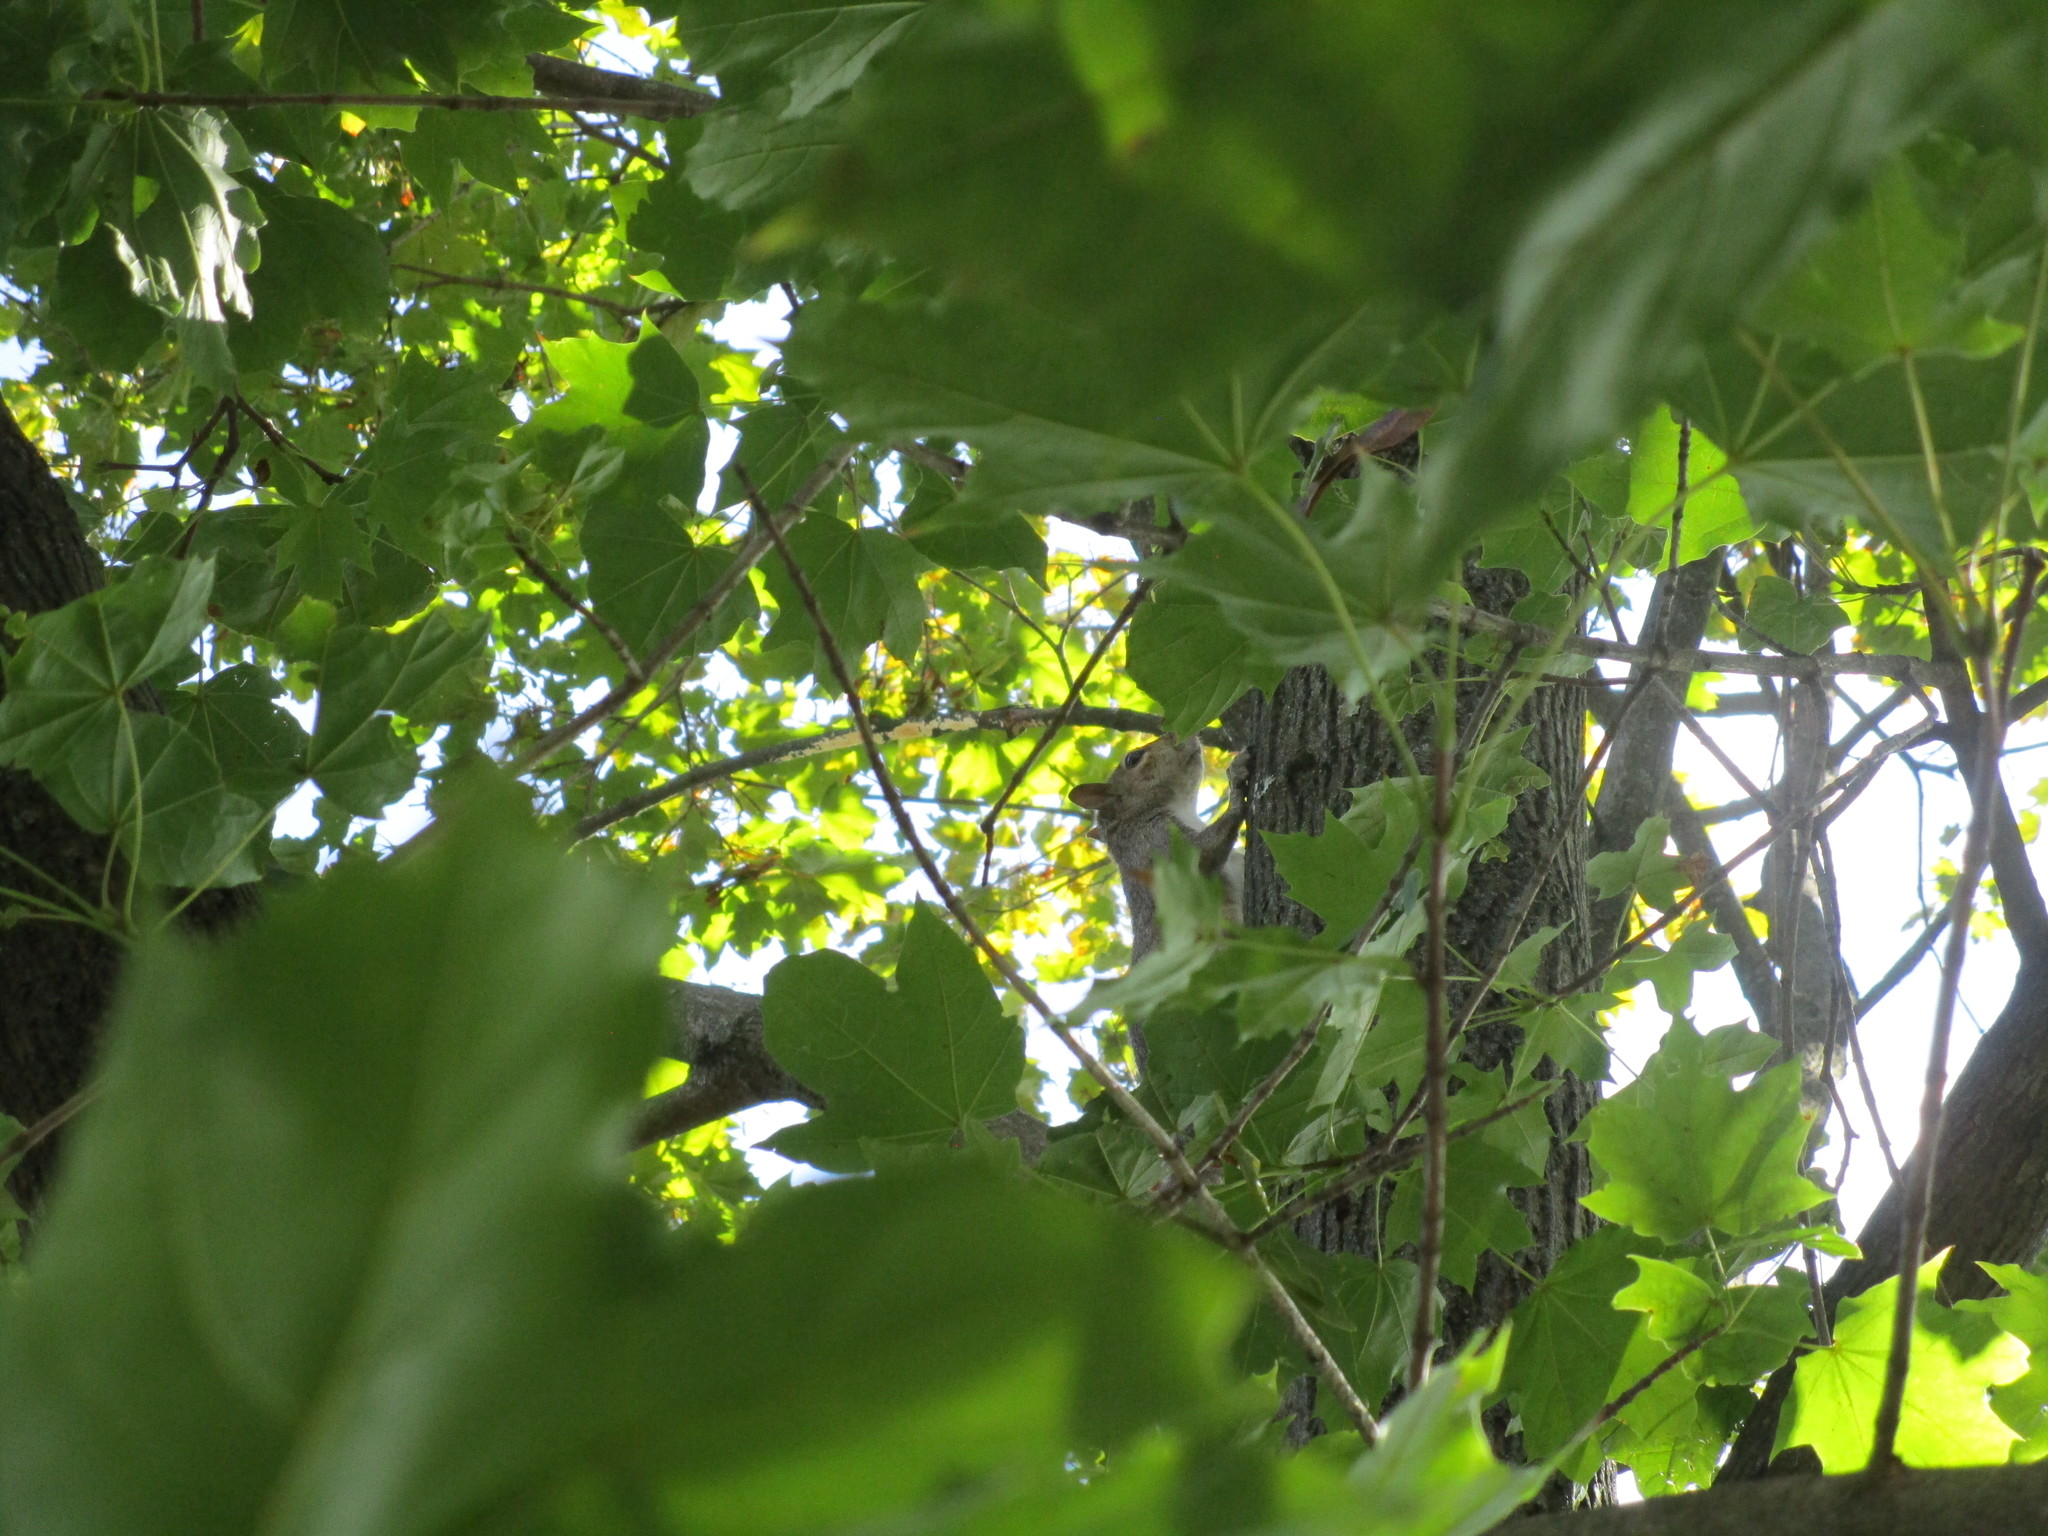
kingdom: Animalia
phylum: Chordata
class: Mammalia
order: Rodentia
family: Sciuridae
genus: Sciurus
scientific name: Sciurus carolinensis
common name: Eastern gray squirrel
